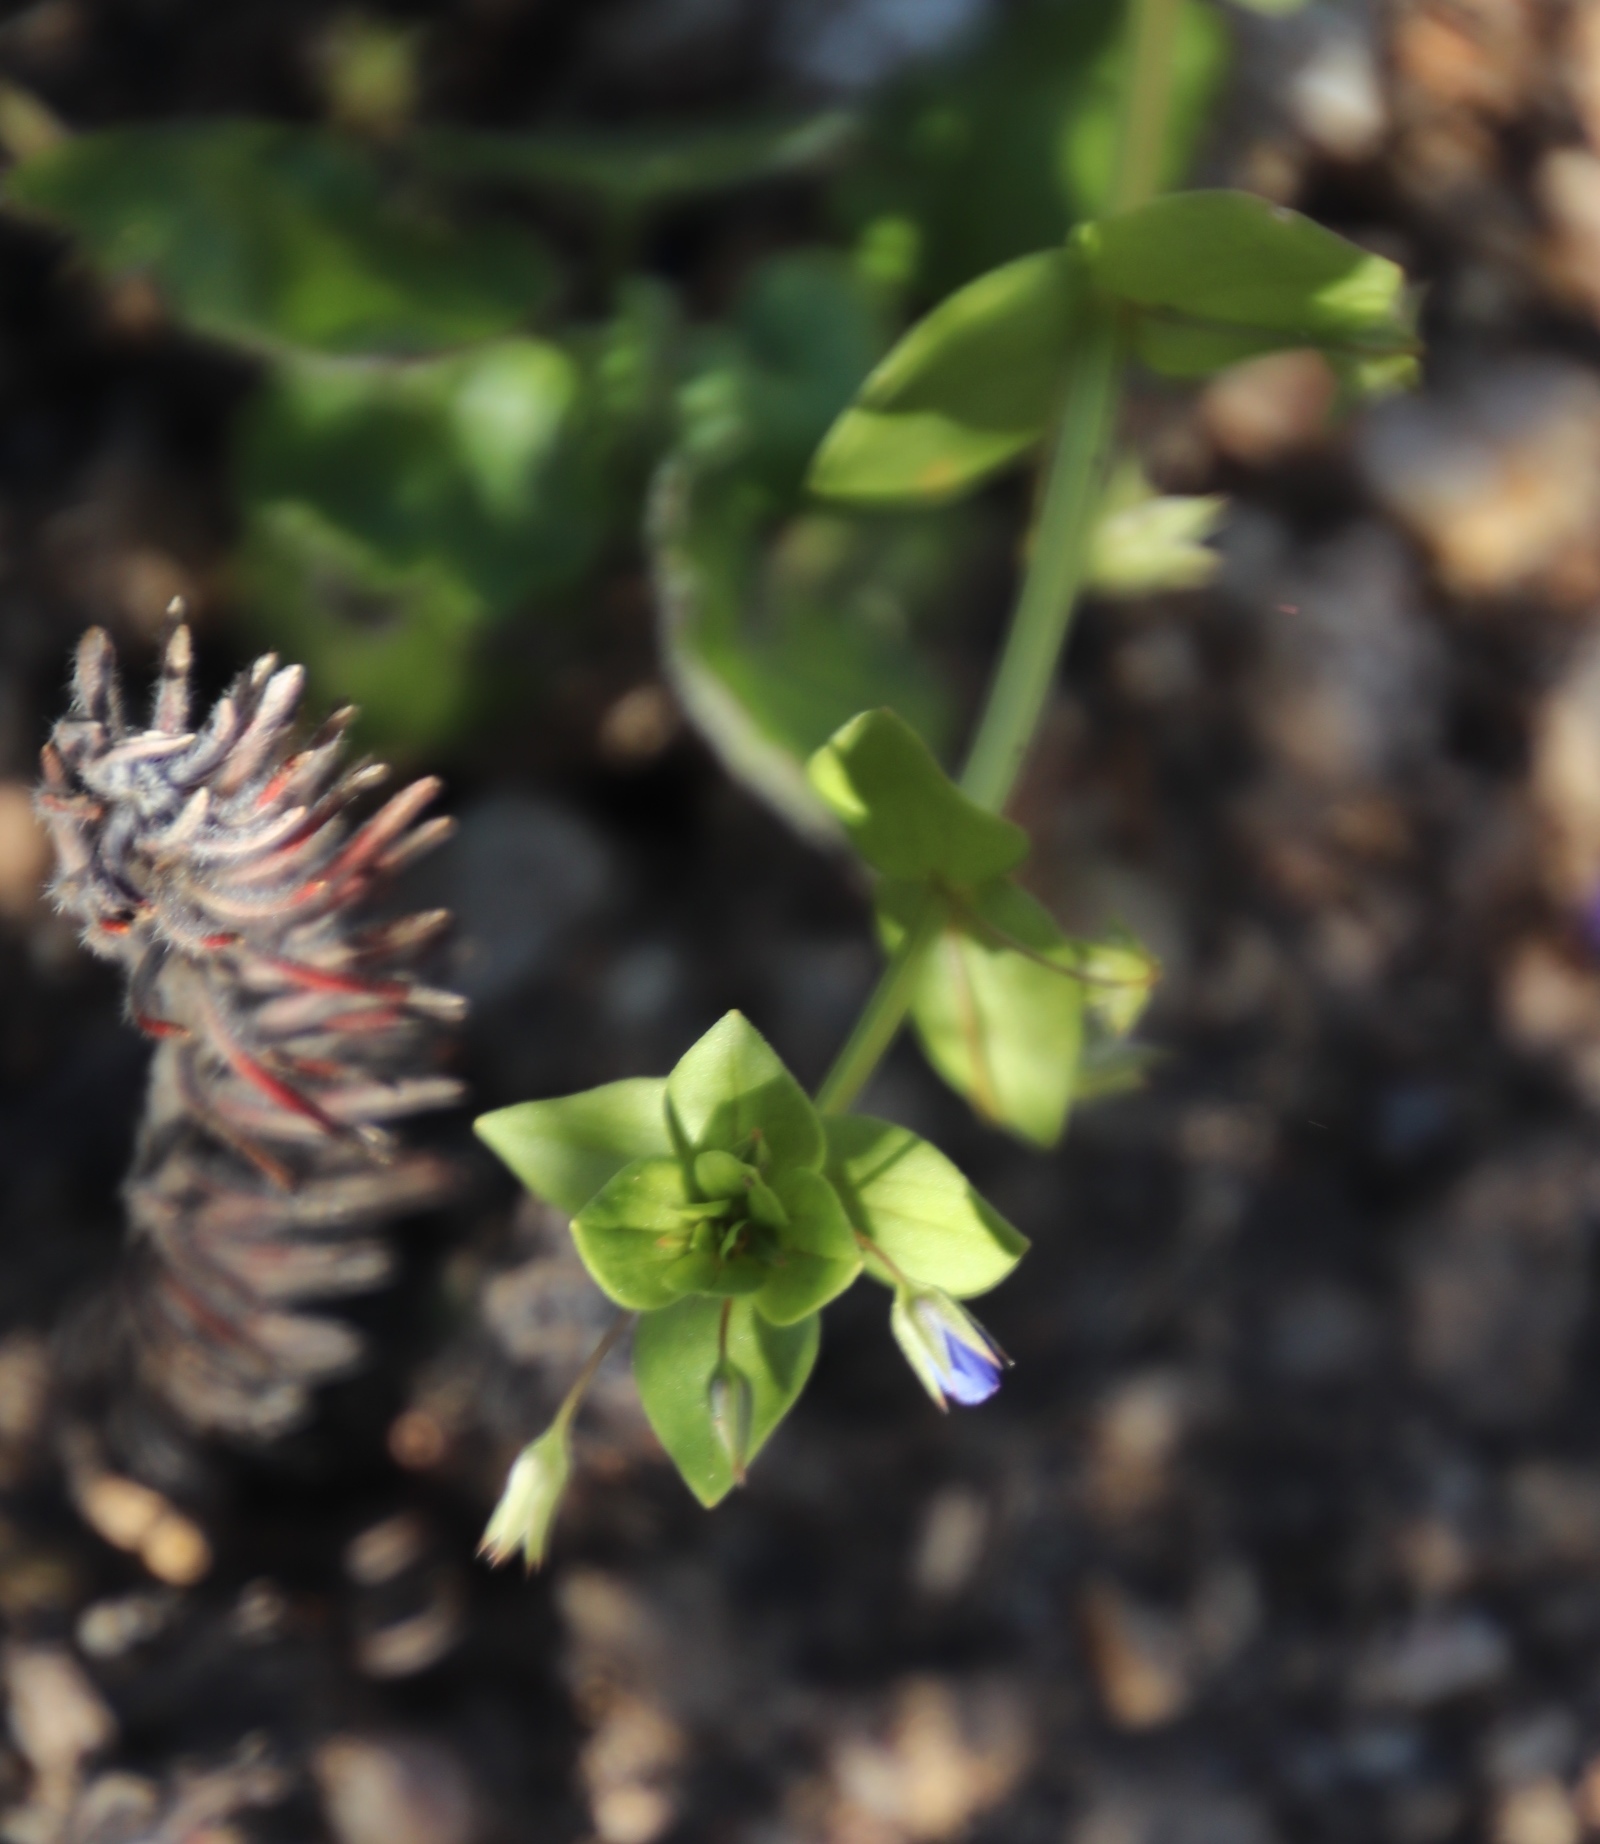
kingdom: Plantae
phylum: Tracheophyta
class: Magnoliopsida
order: Ericales
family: Primulaceae
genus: Lysimachia
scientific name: Lysimachia loeflingii
